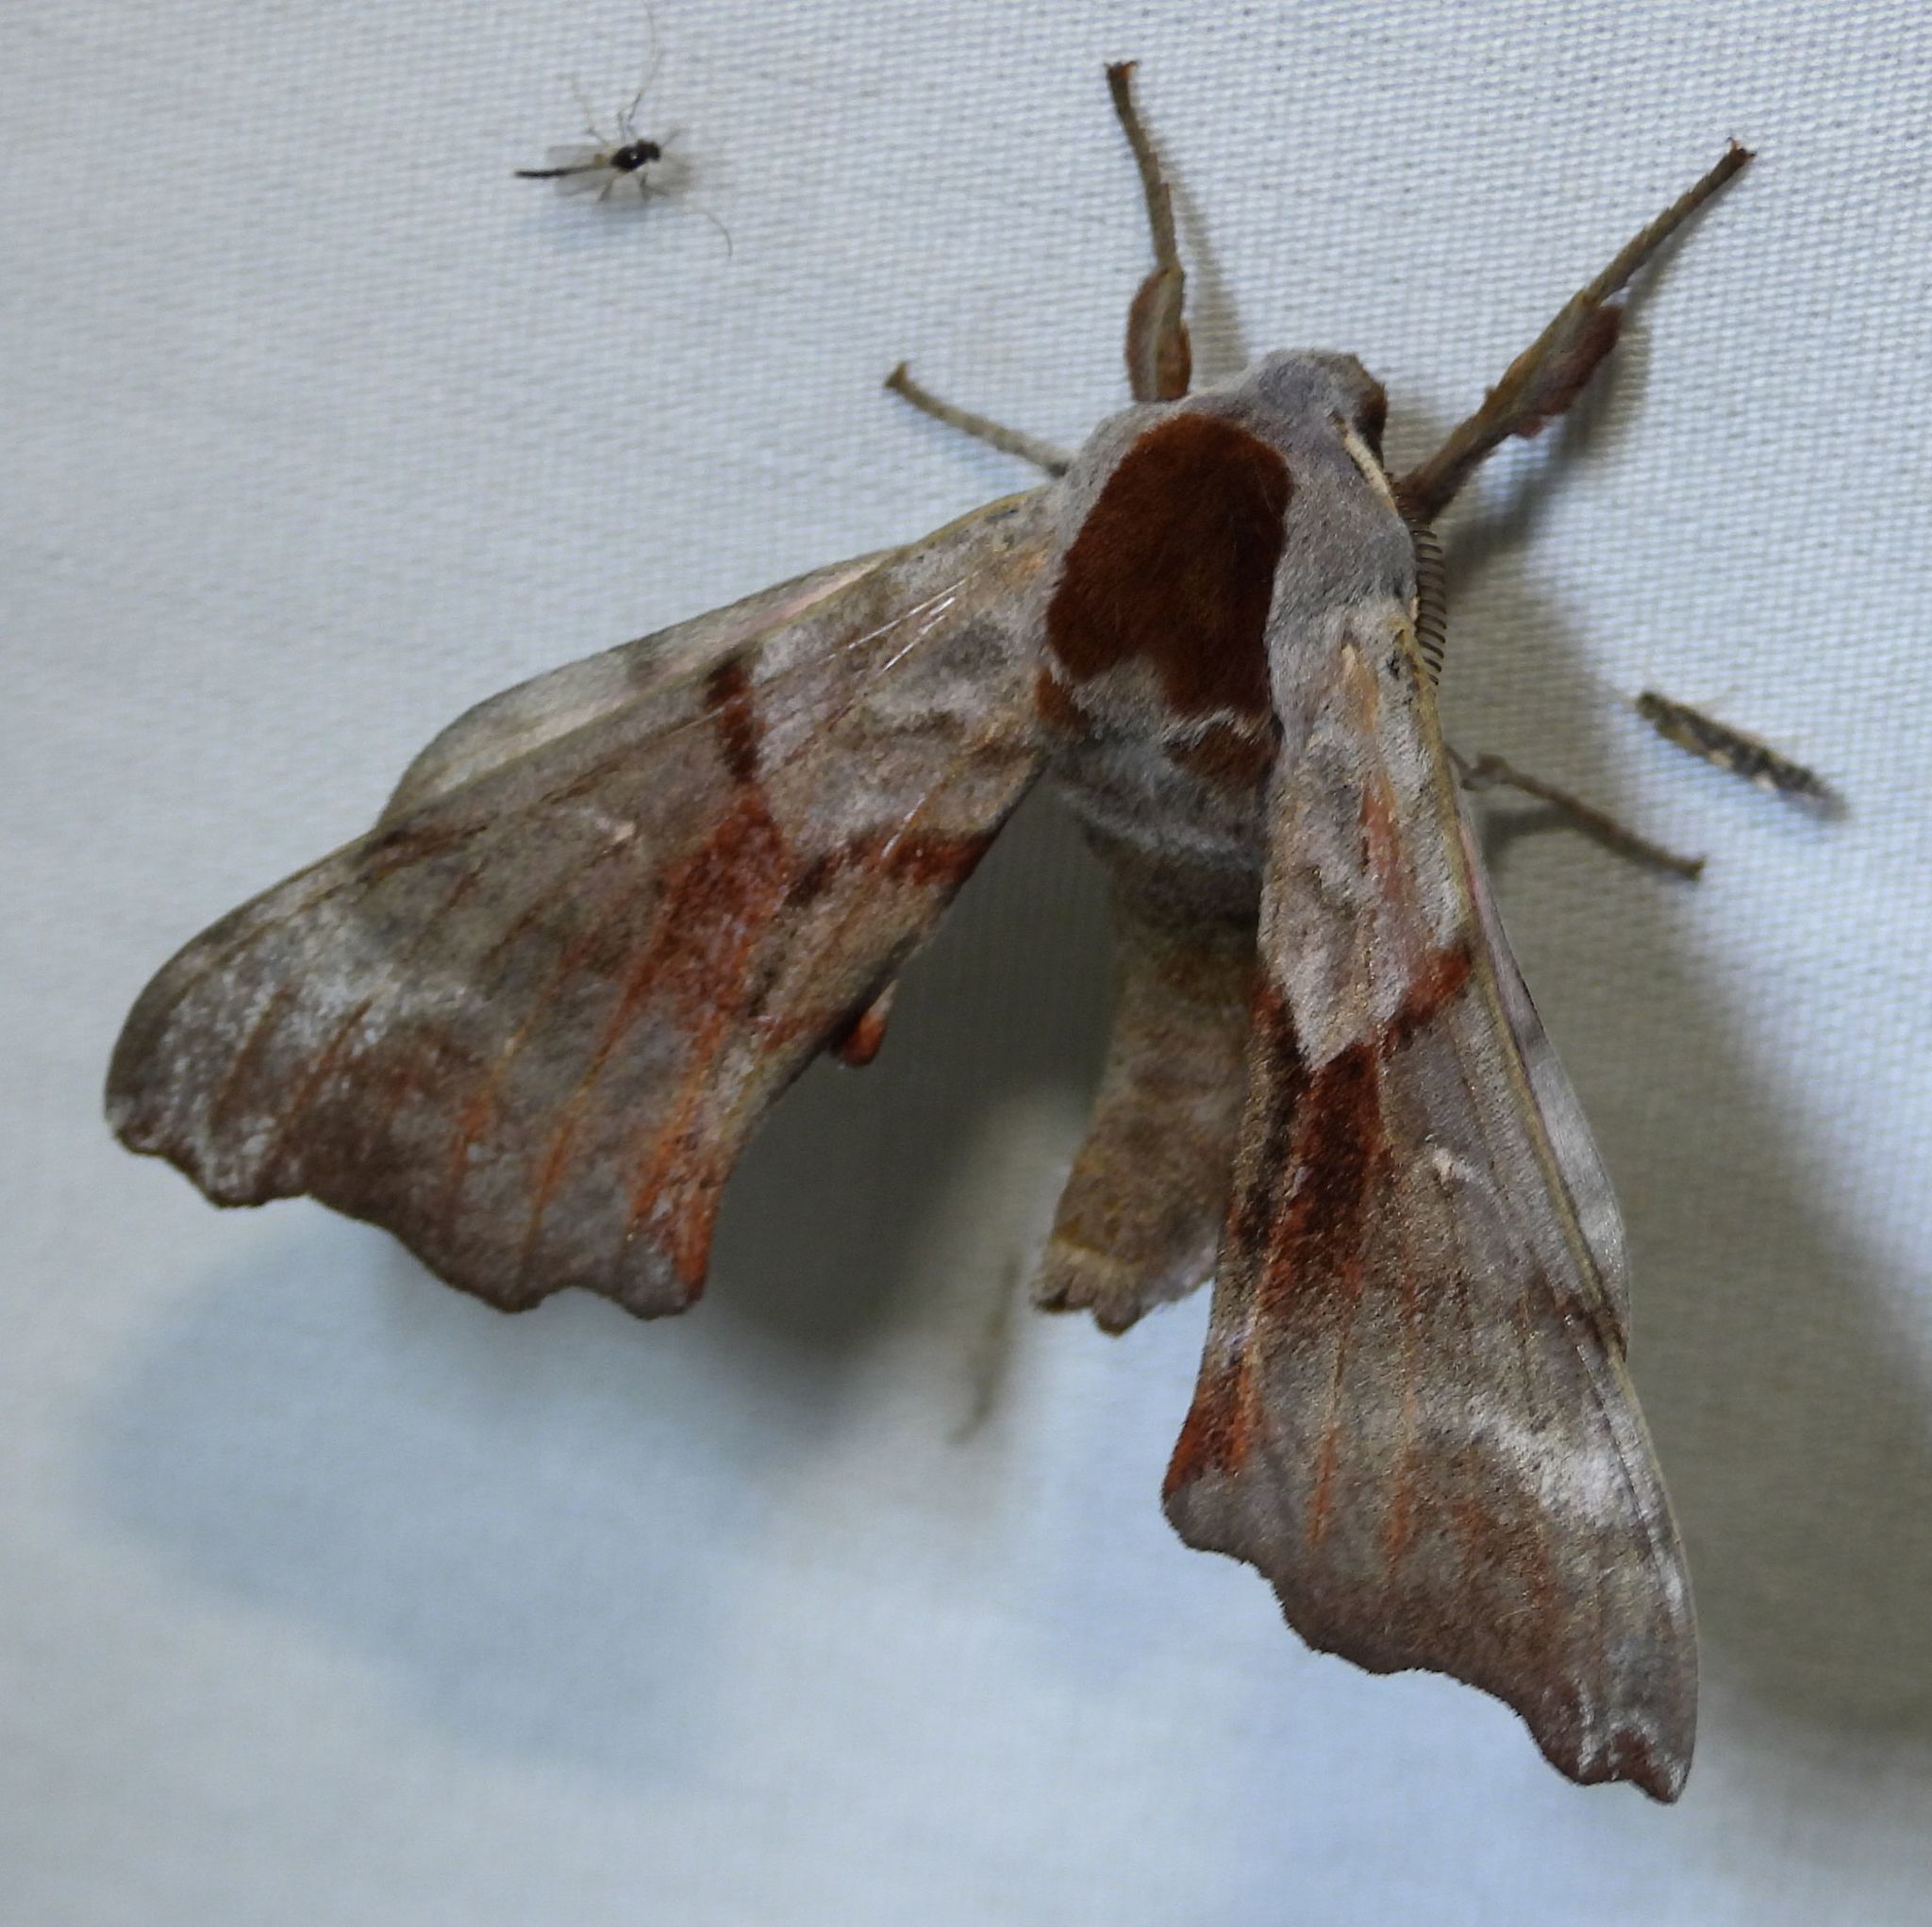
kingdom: Animalia
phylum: Arthropoda
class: Insecta
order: Lepidoptera
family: Sphingidae
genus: Smerinthus
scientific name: Smerinthus jamaicensis
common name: Twin spotted sphinx
